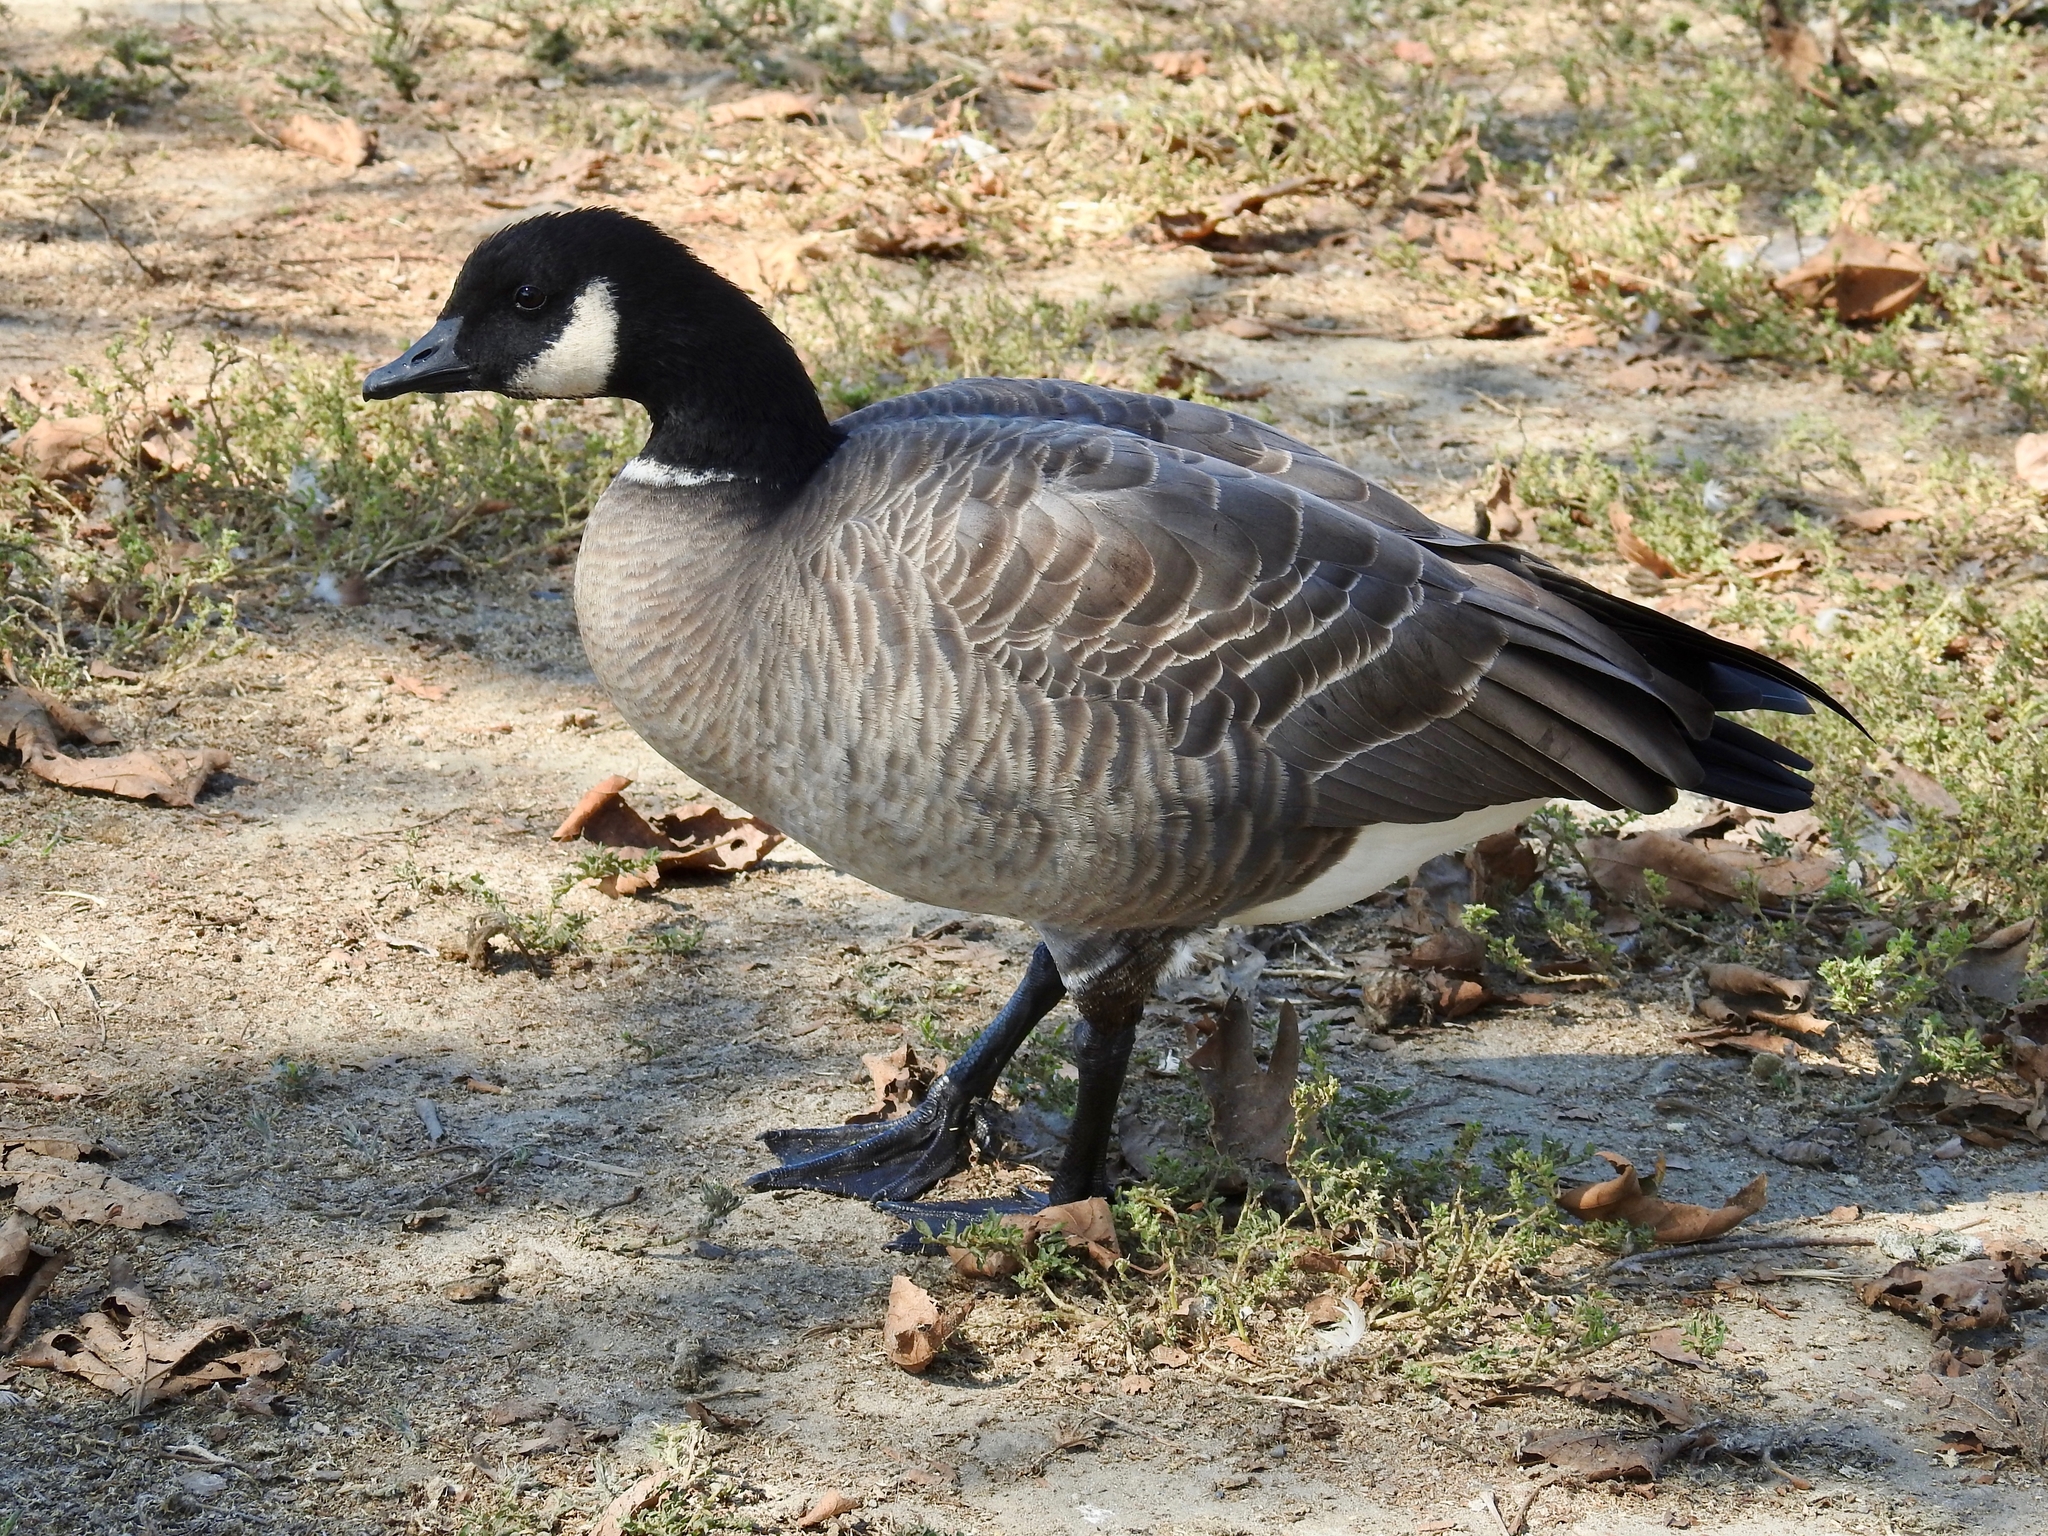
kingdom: Animalia
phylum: Chordata
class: Aves
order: Anseriformes
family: Anatidae
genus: Branta
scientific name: Branta hutchinsii
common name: Cackling goose
